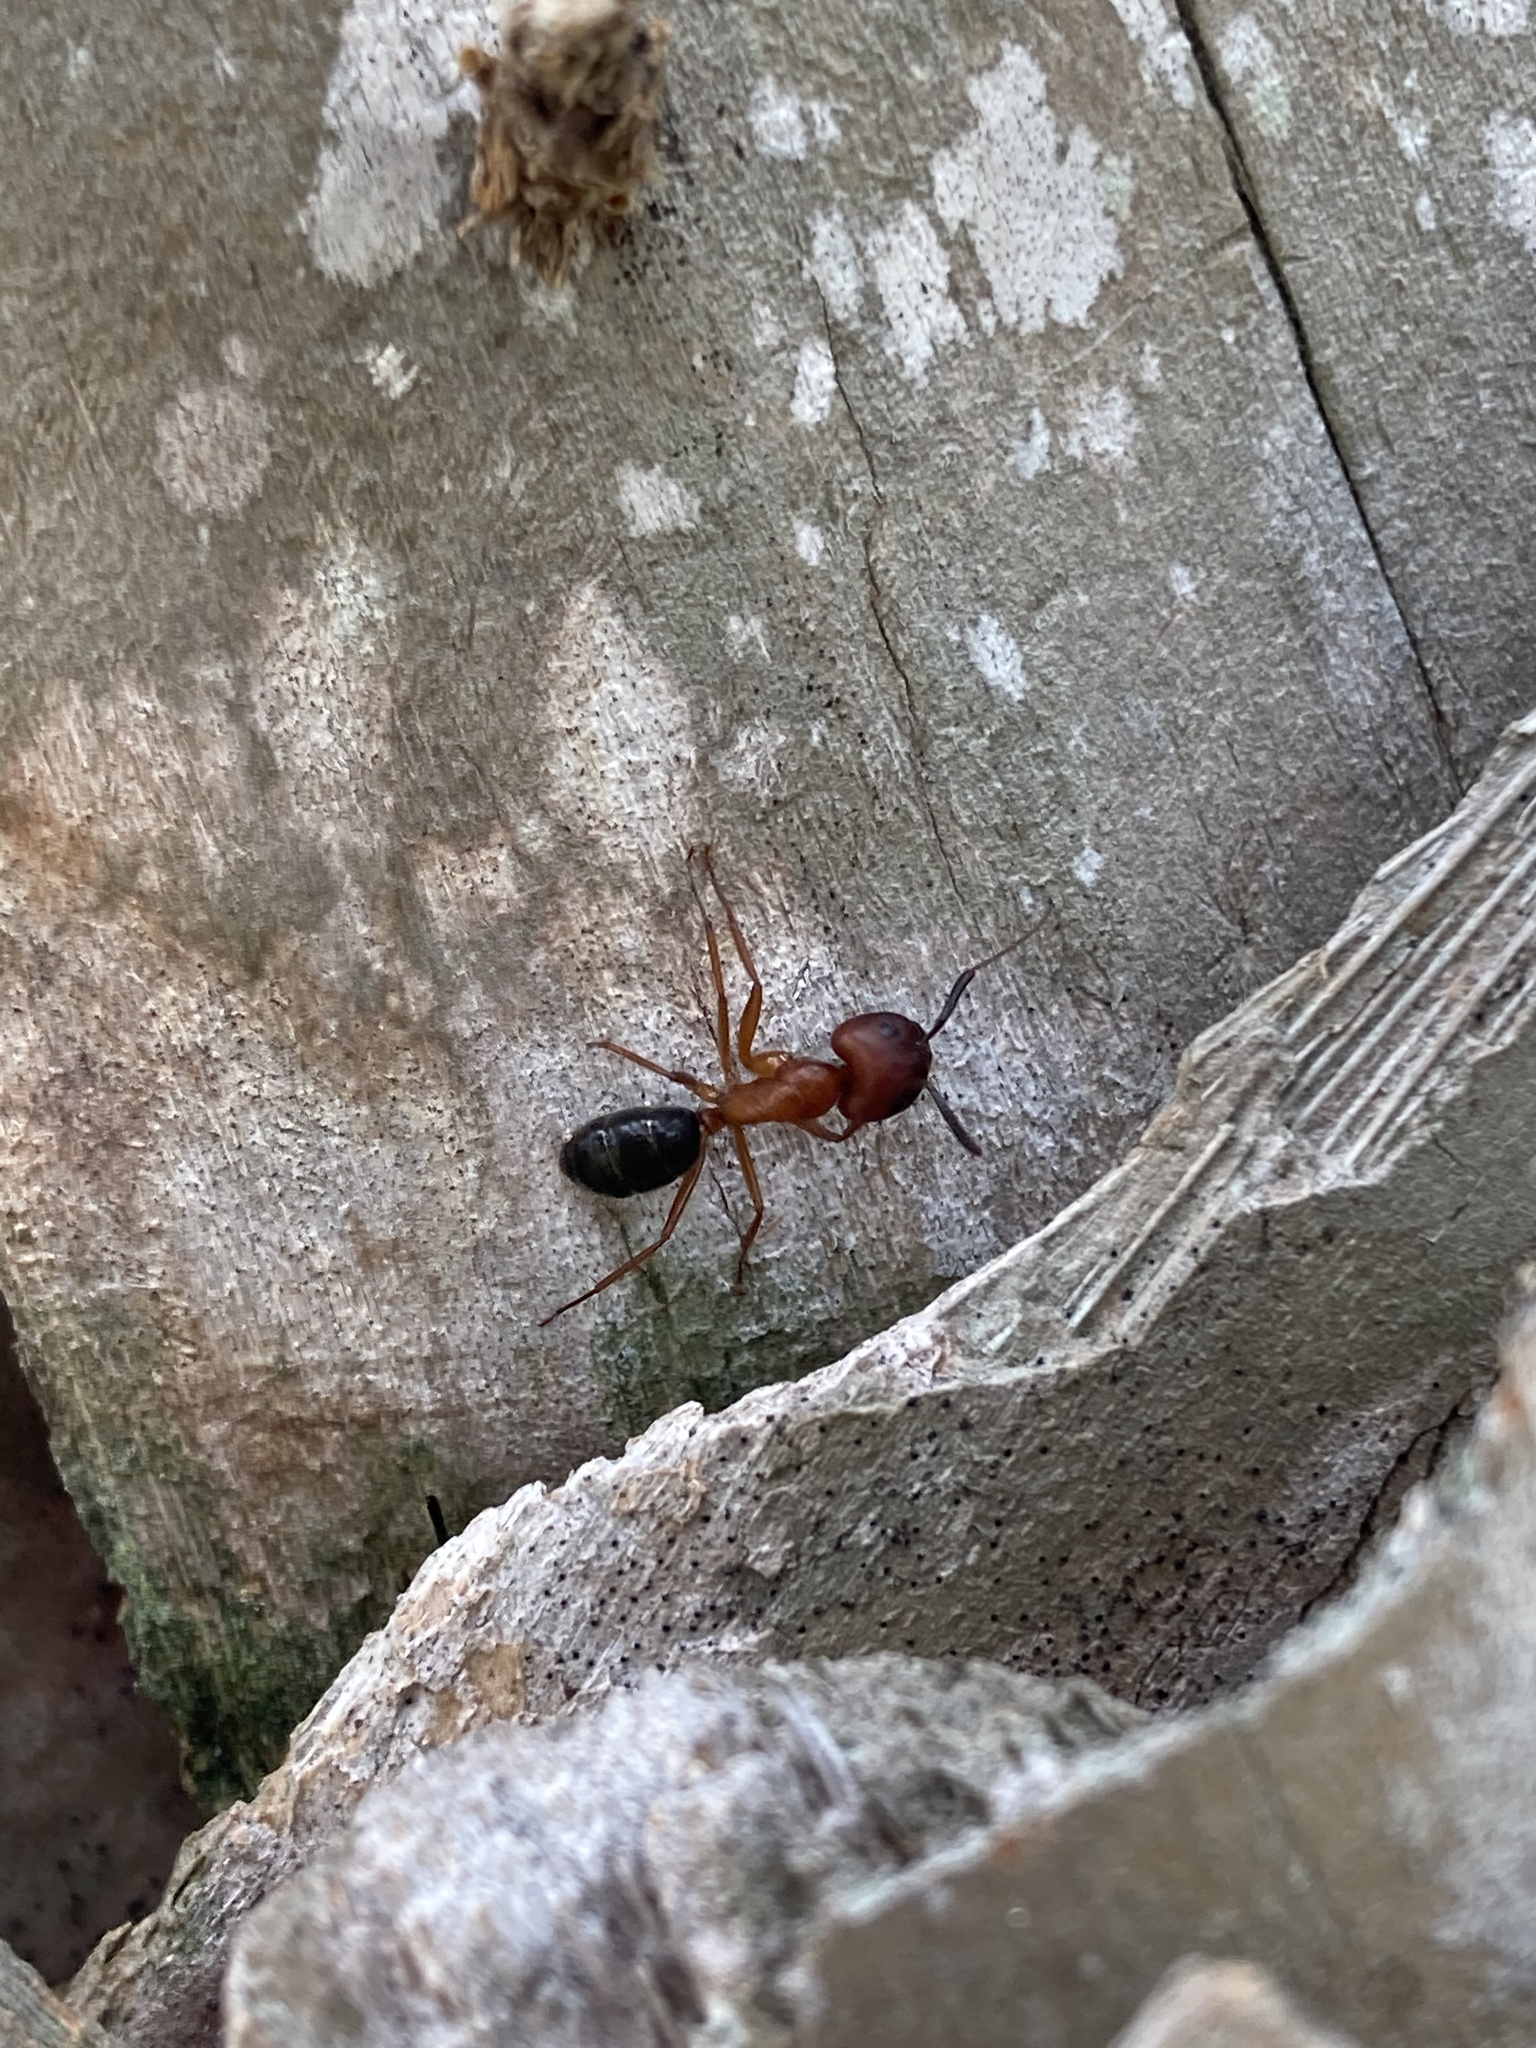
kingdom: Animalia
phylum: Arthropoda
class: Insecta
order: Hymenoptera
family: Formicidae
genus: Camponotus
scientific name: Camponotus floridanus
